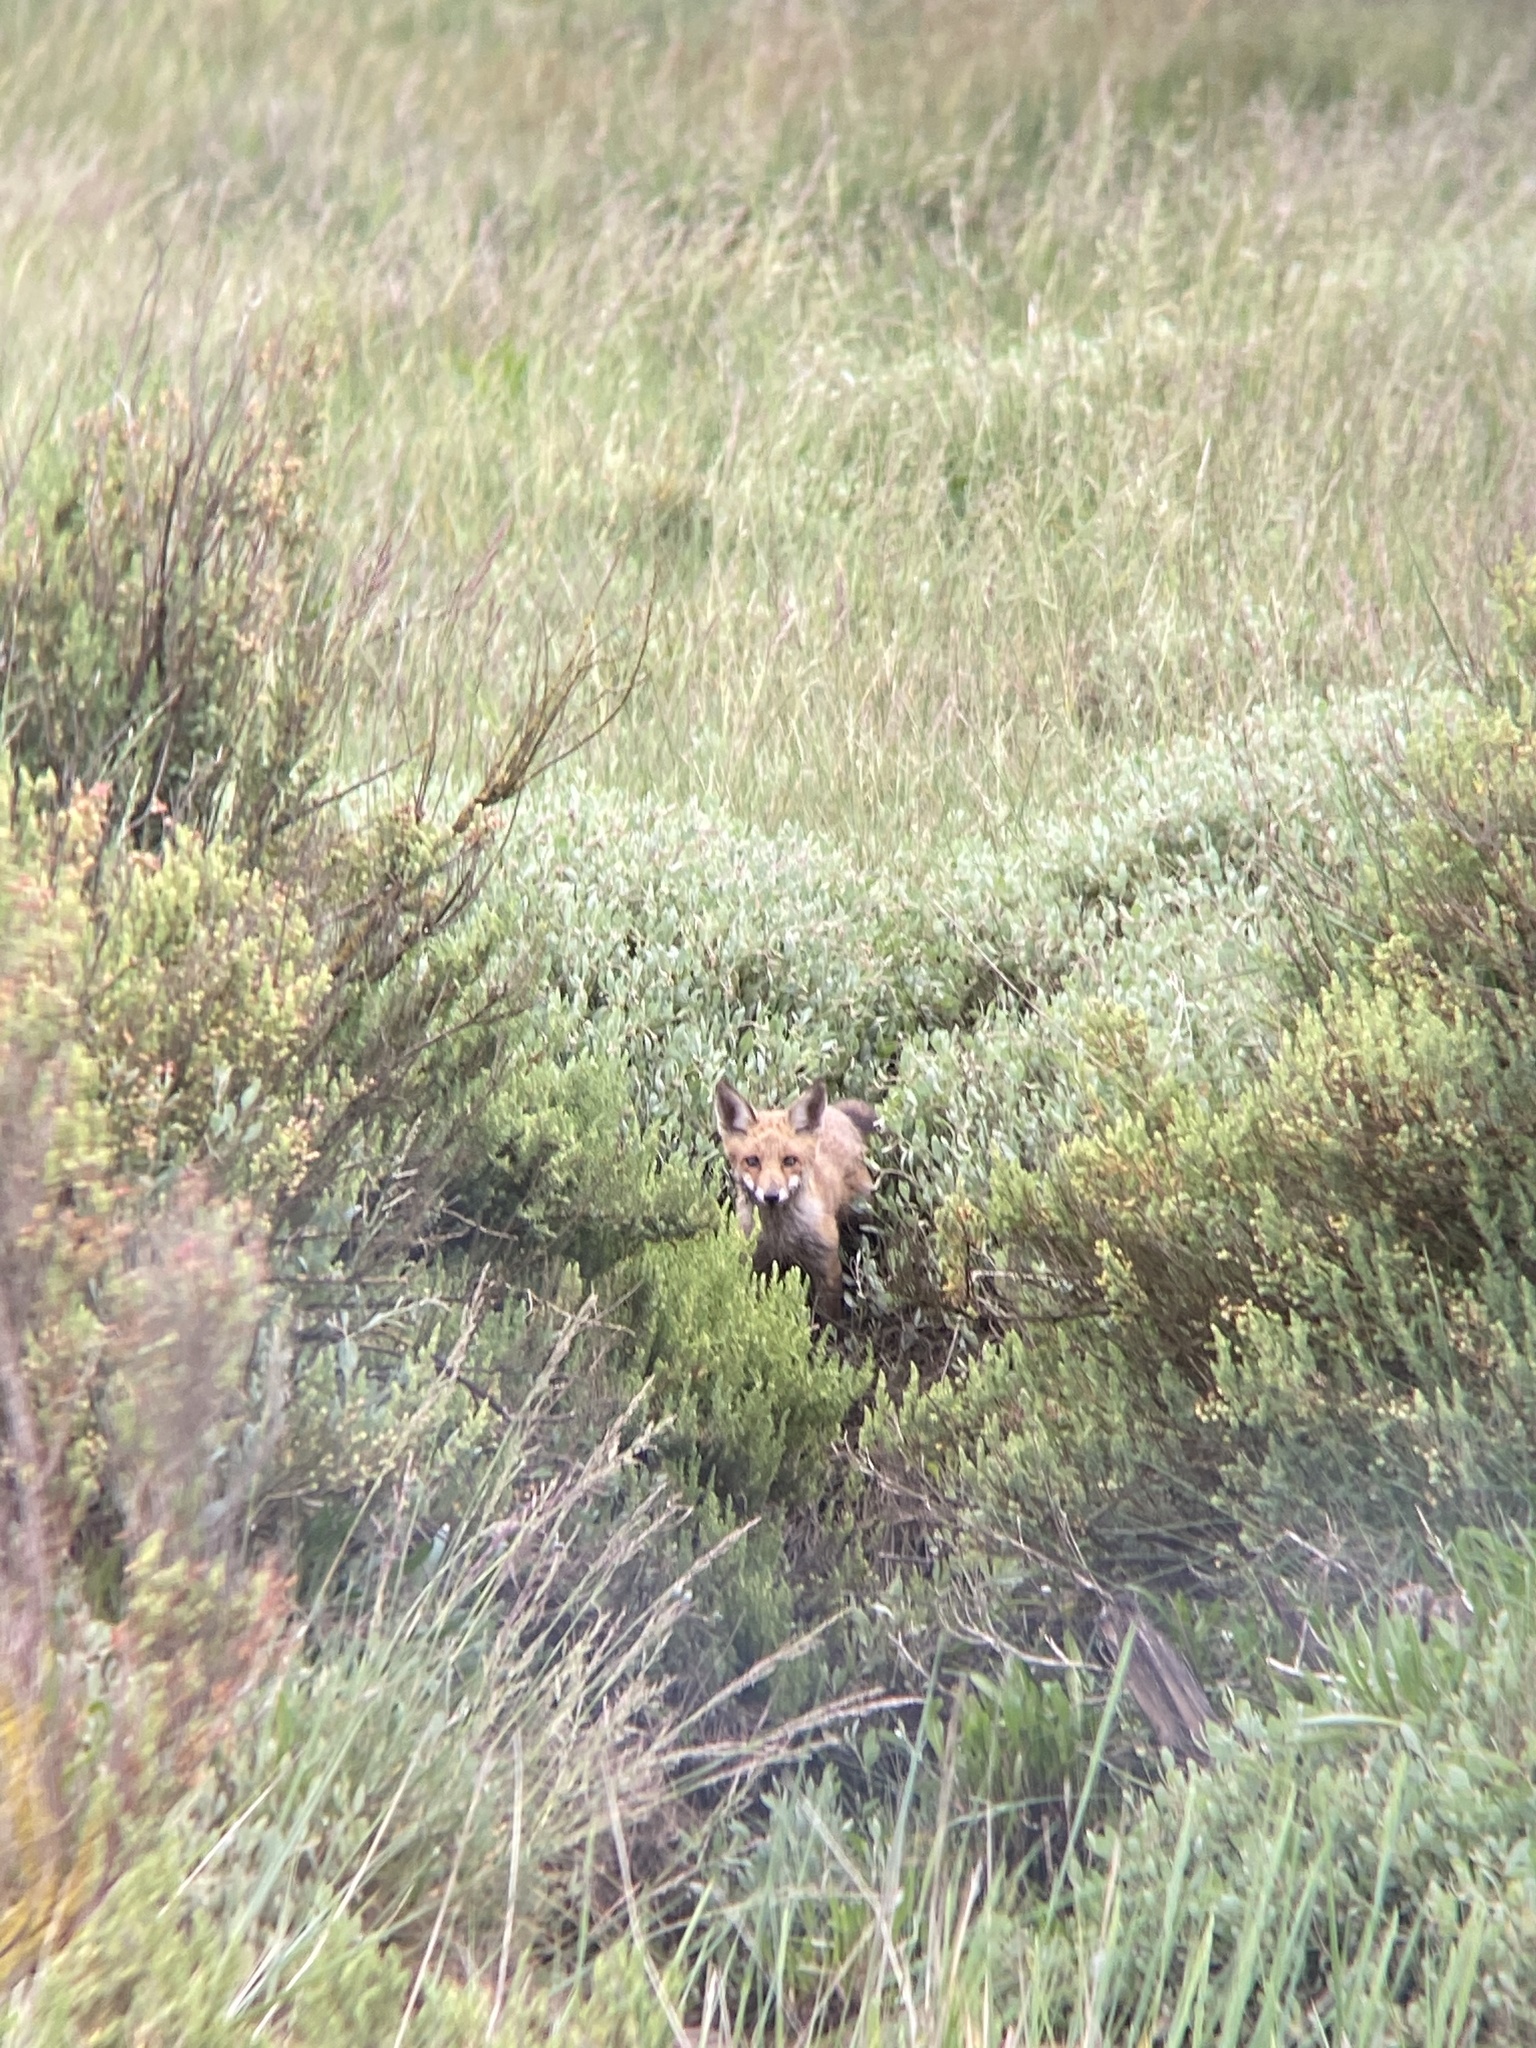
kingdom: Animalia
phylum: Chordata
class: Mammalia
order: Carnivora
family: Canidae
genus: Vulpes
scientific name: Vulpes vulpes
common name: Red fox
